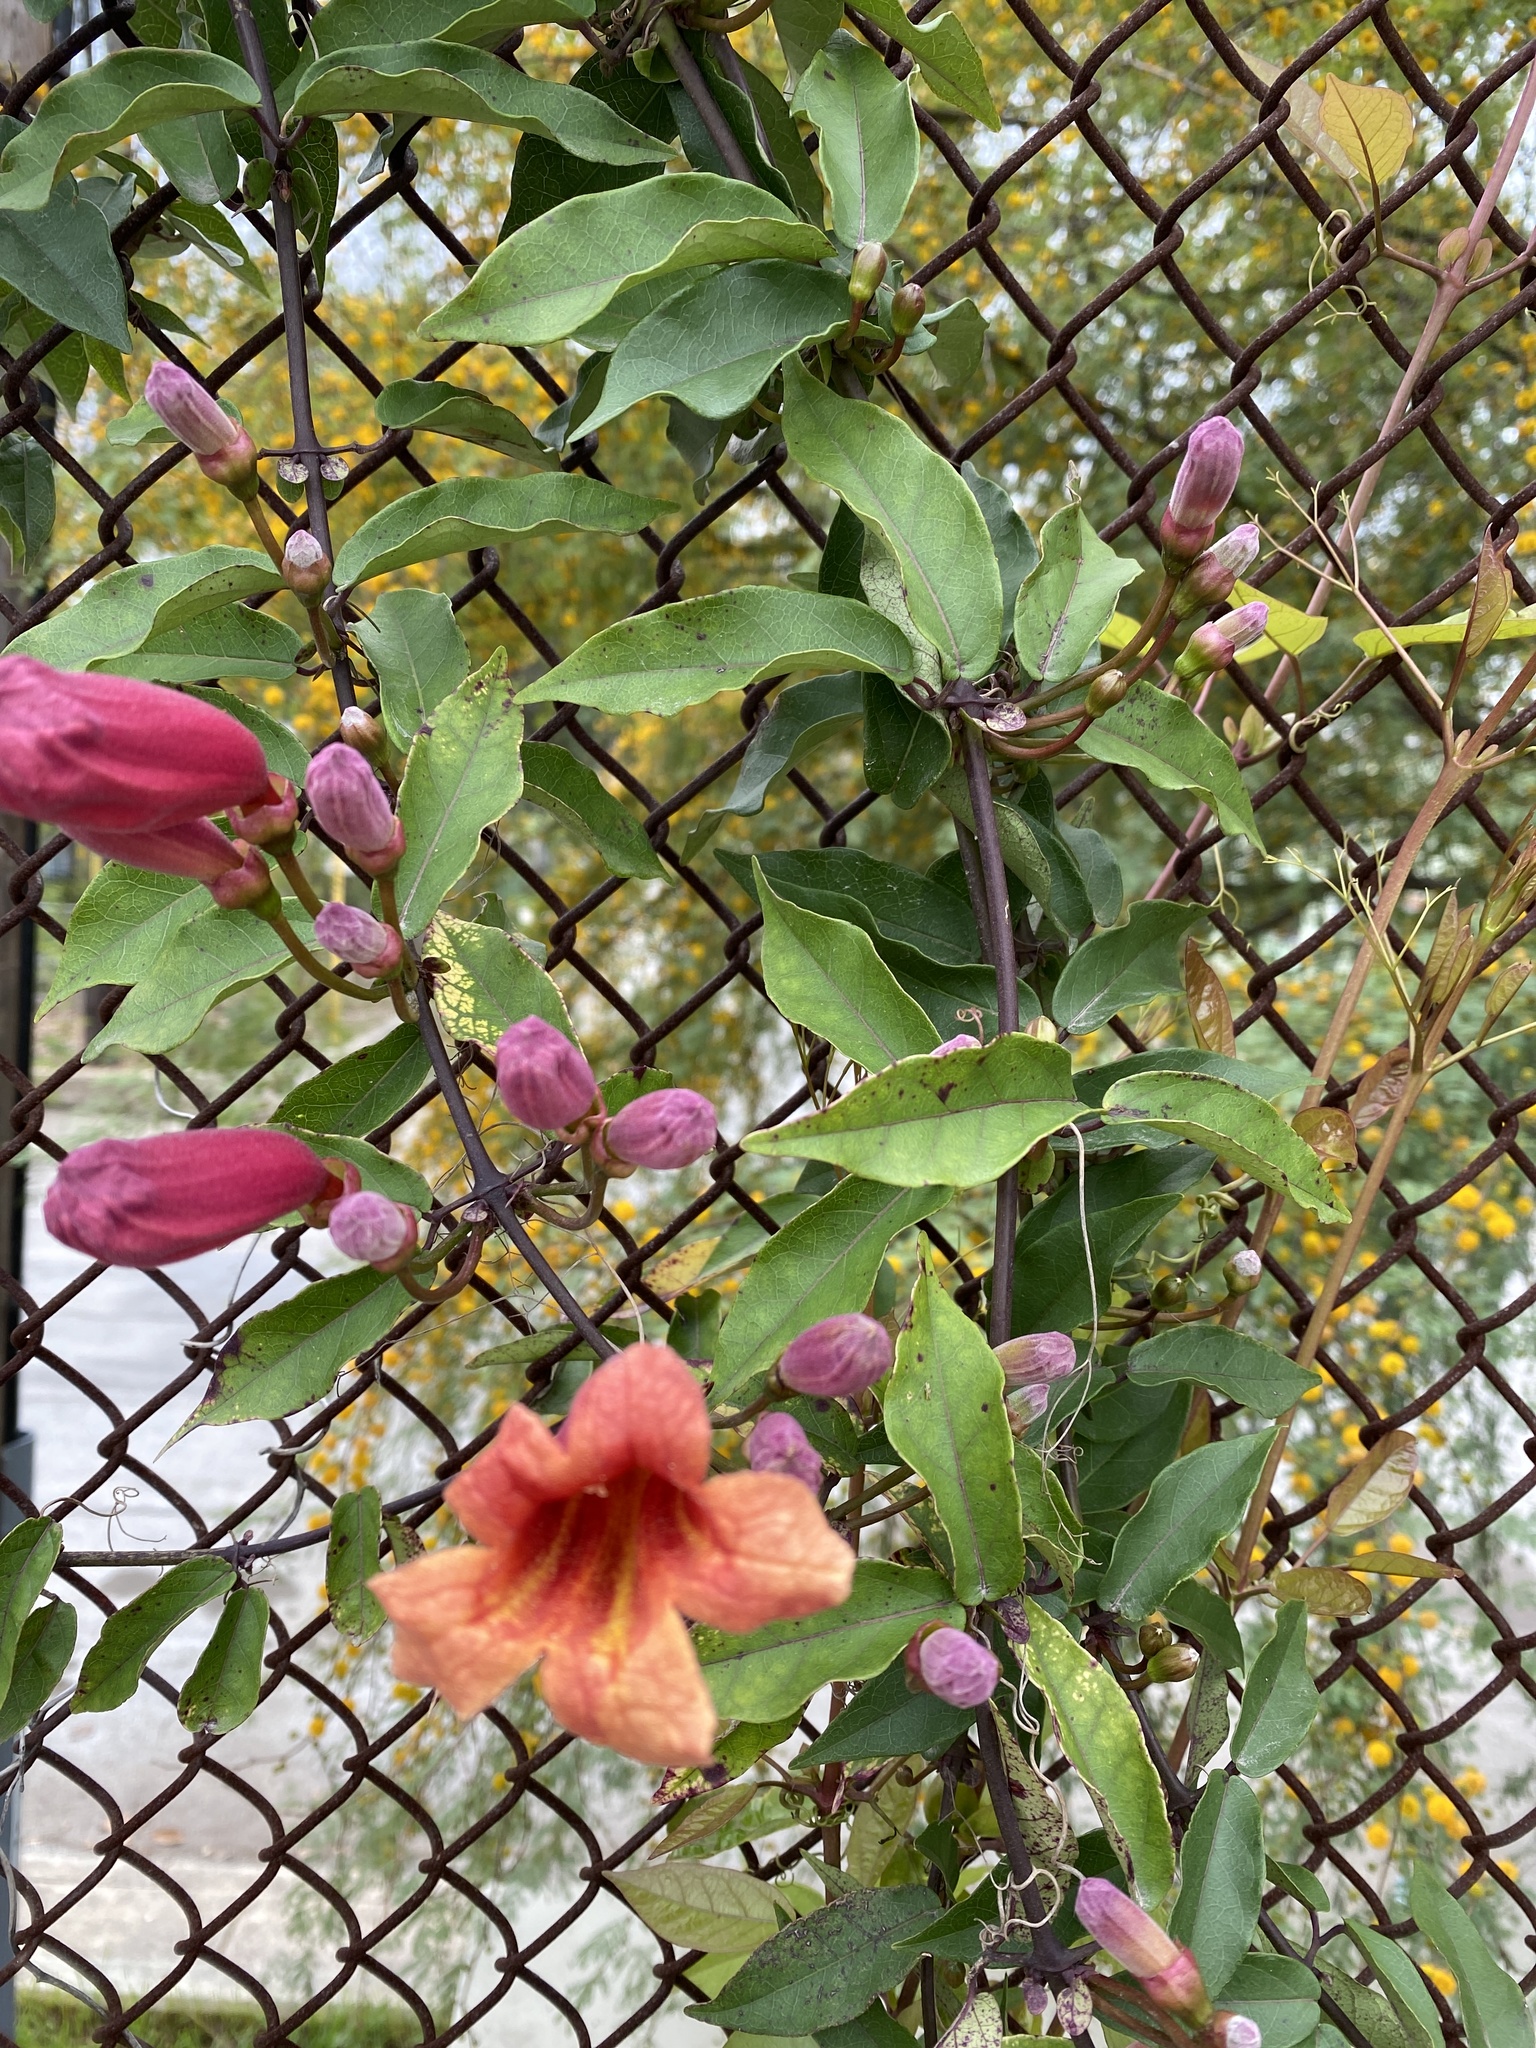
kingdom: Plantae
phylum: Tracheophyta
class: Magnoliopsida
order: Lamiales
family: Bignoniaceae
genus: Bignonia
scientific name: Bignonia capreolata
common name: Crossvine
